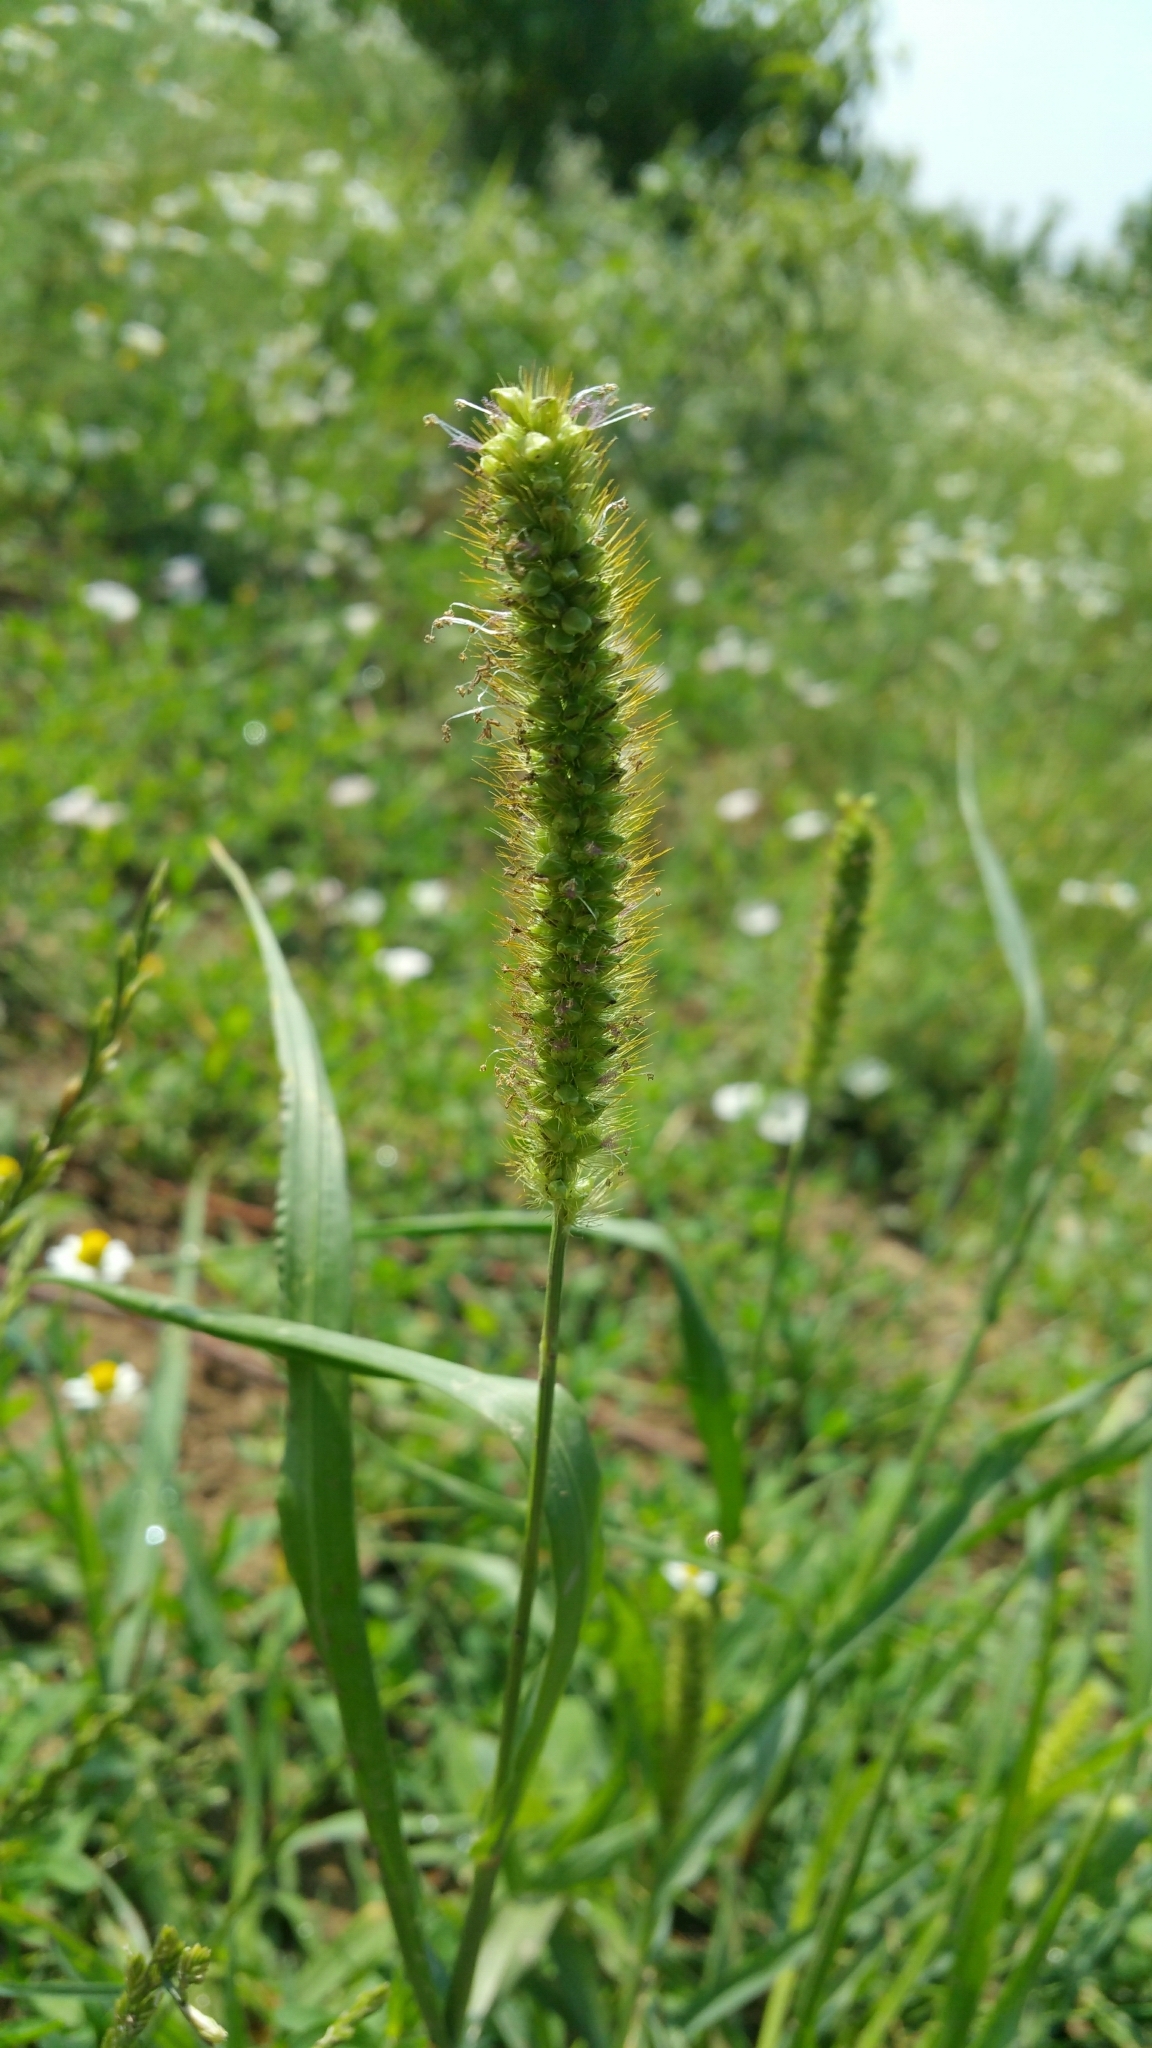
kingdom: Plantae
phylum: Tracheophyta
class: Liliopsida
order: Poales
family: Poaceae
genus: Setaria
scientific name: Setaria pumila
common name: Yellow bristle-grass
